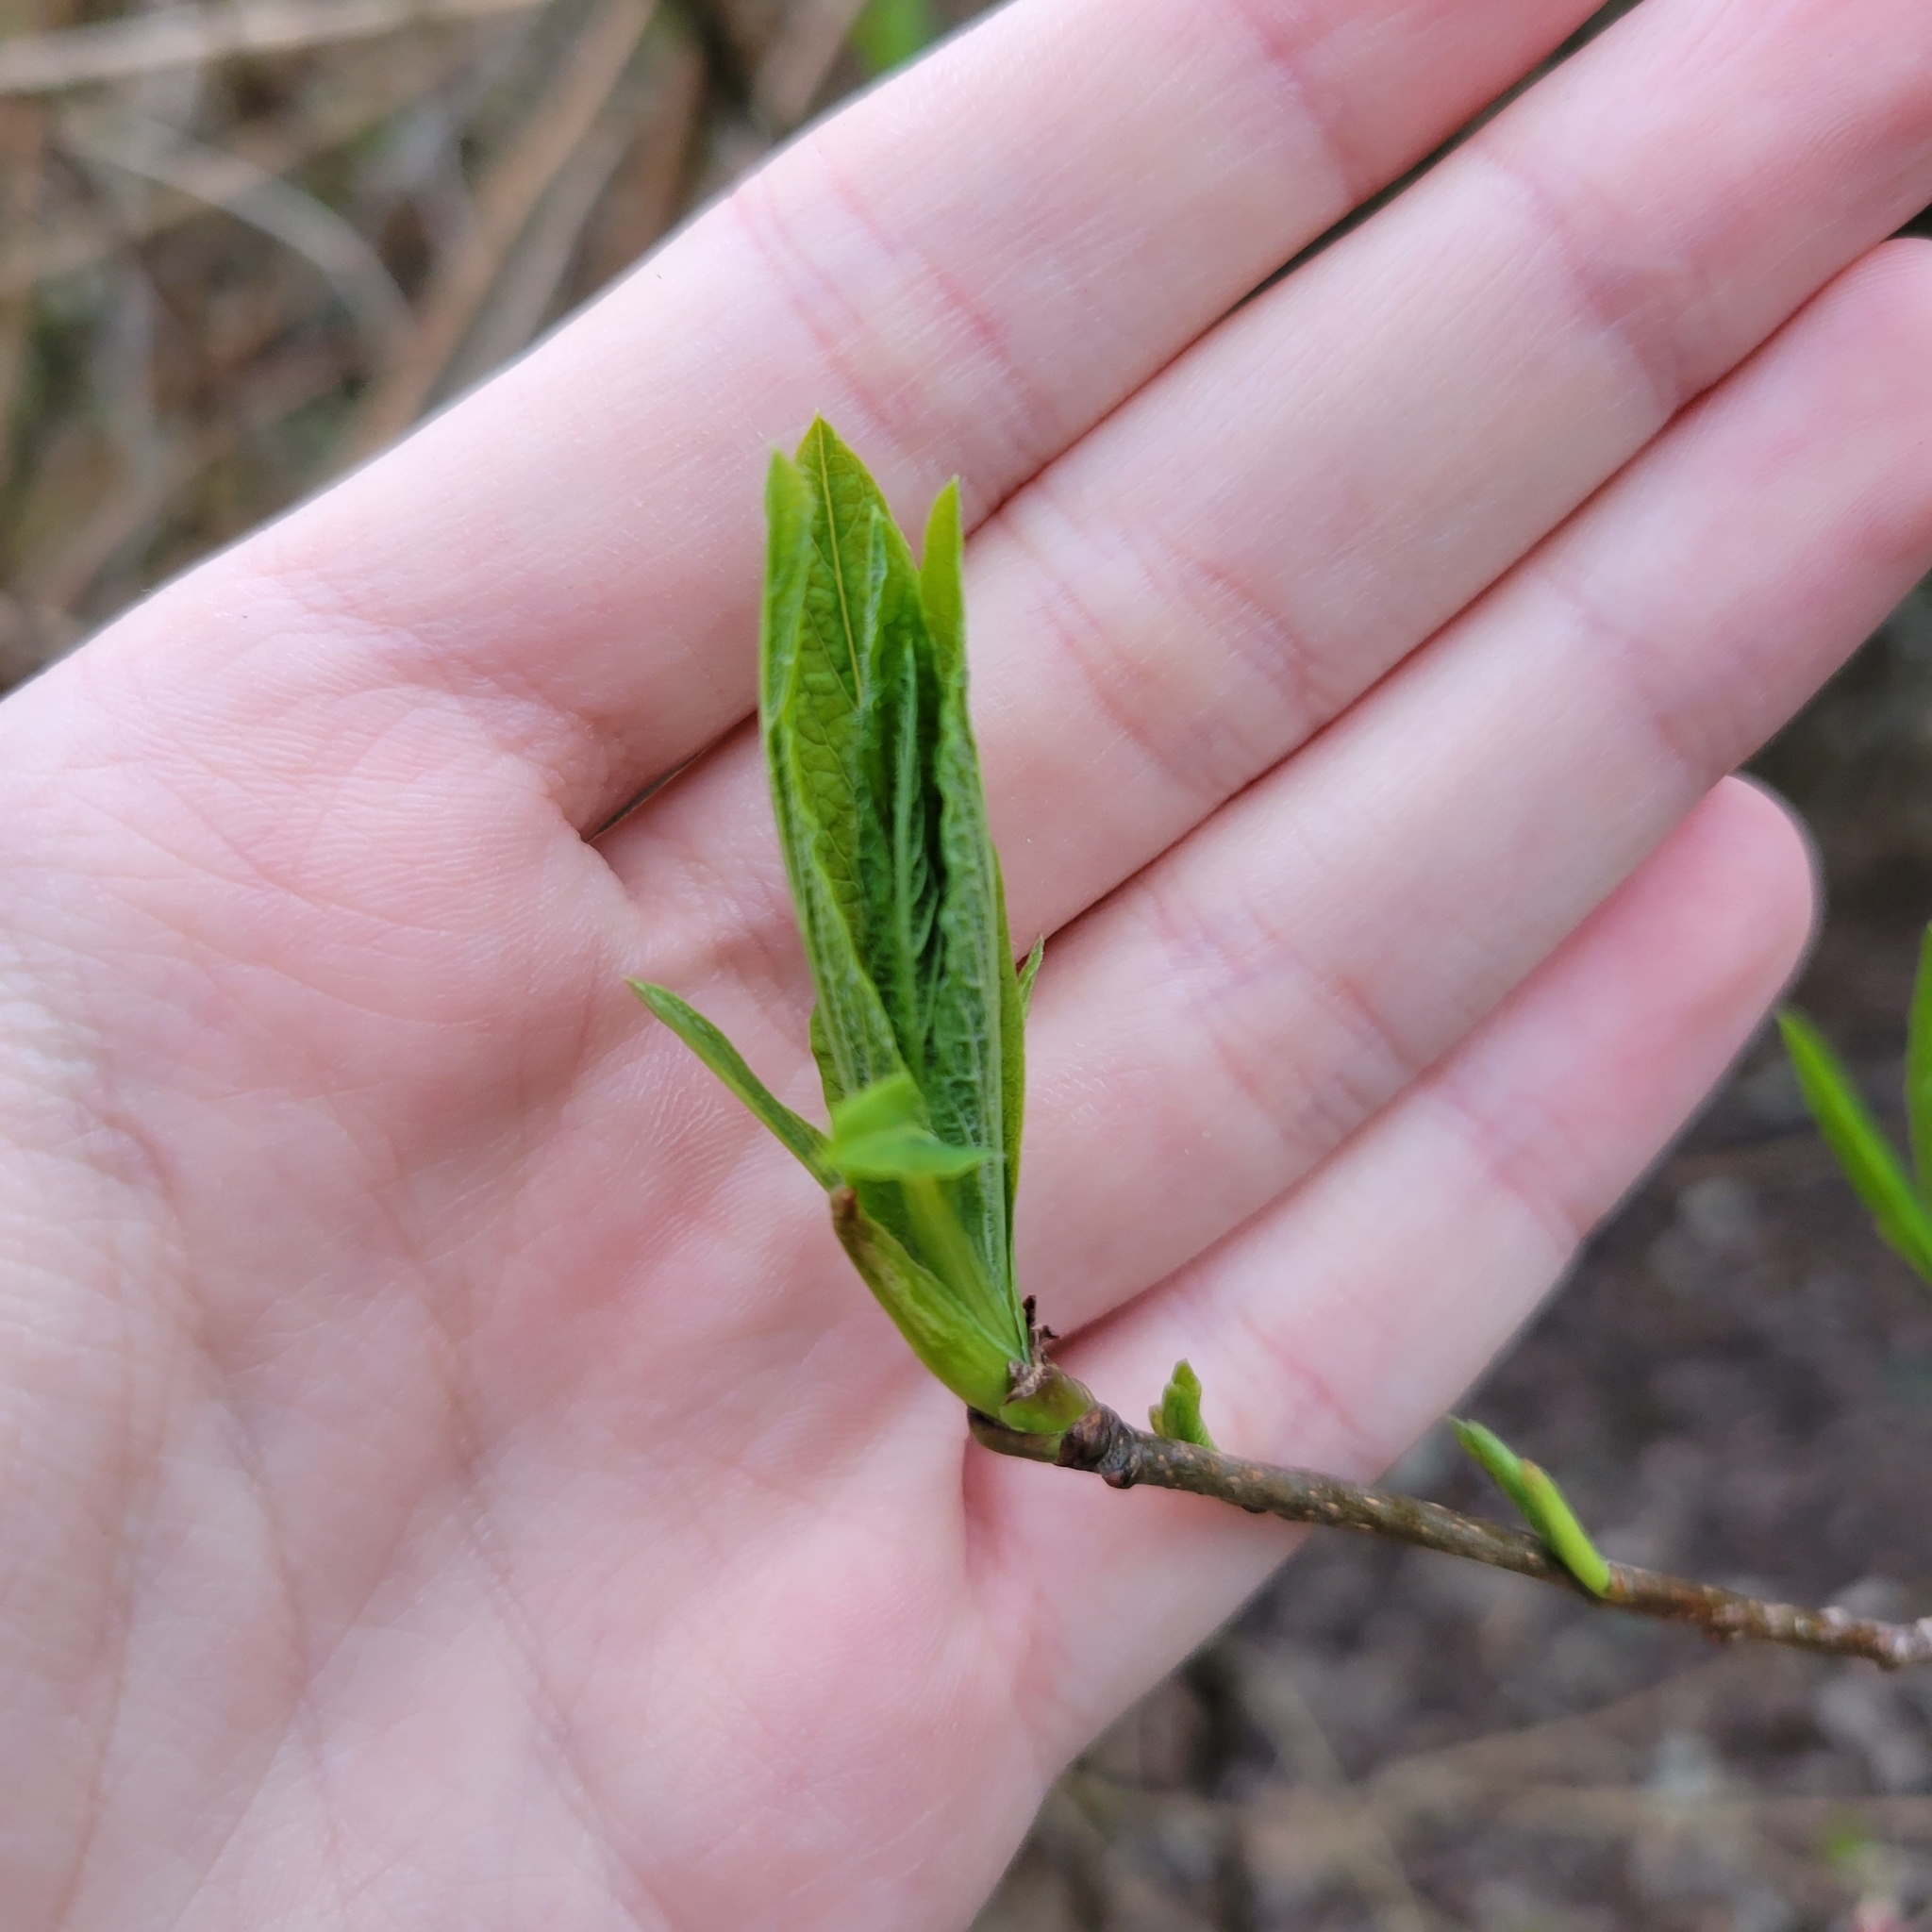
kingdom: Plantae
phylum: Tracheophyta
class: Magnoliopsida
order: Rosales
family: Rosaceae
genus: Oemleria
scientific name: Oemleria cerasiformis
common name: Osoberry
